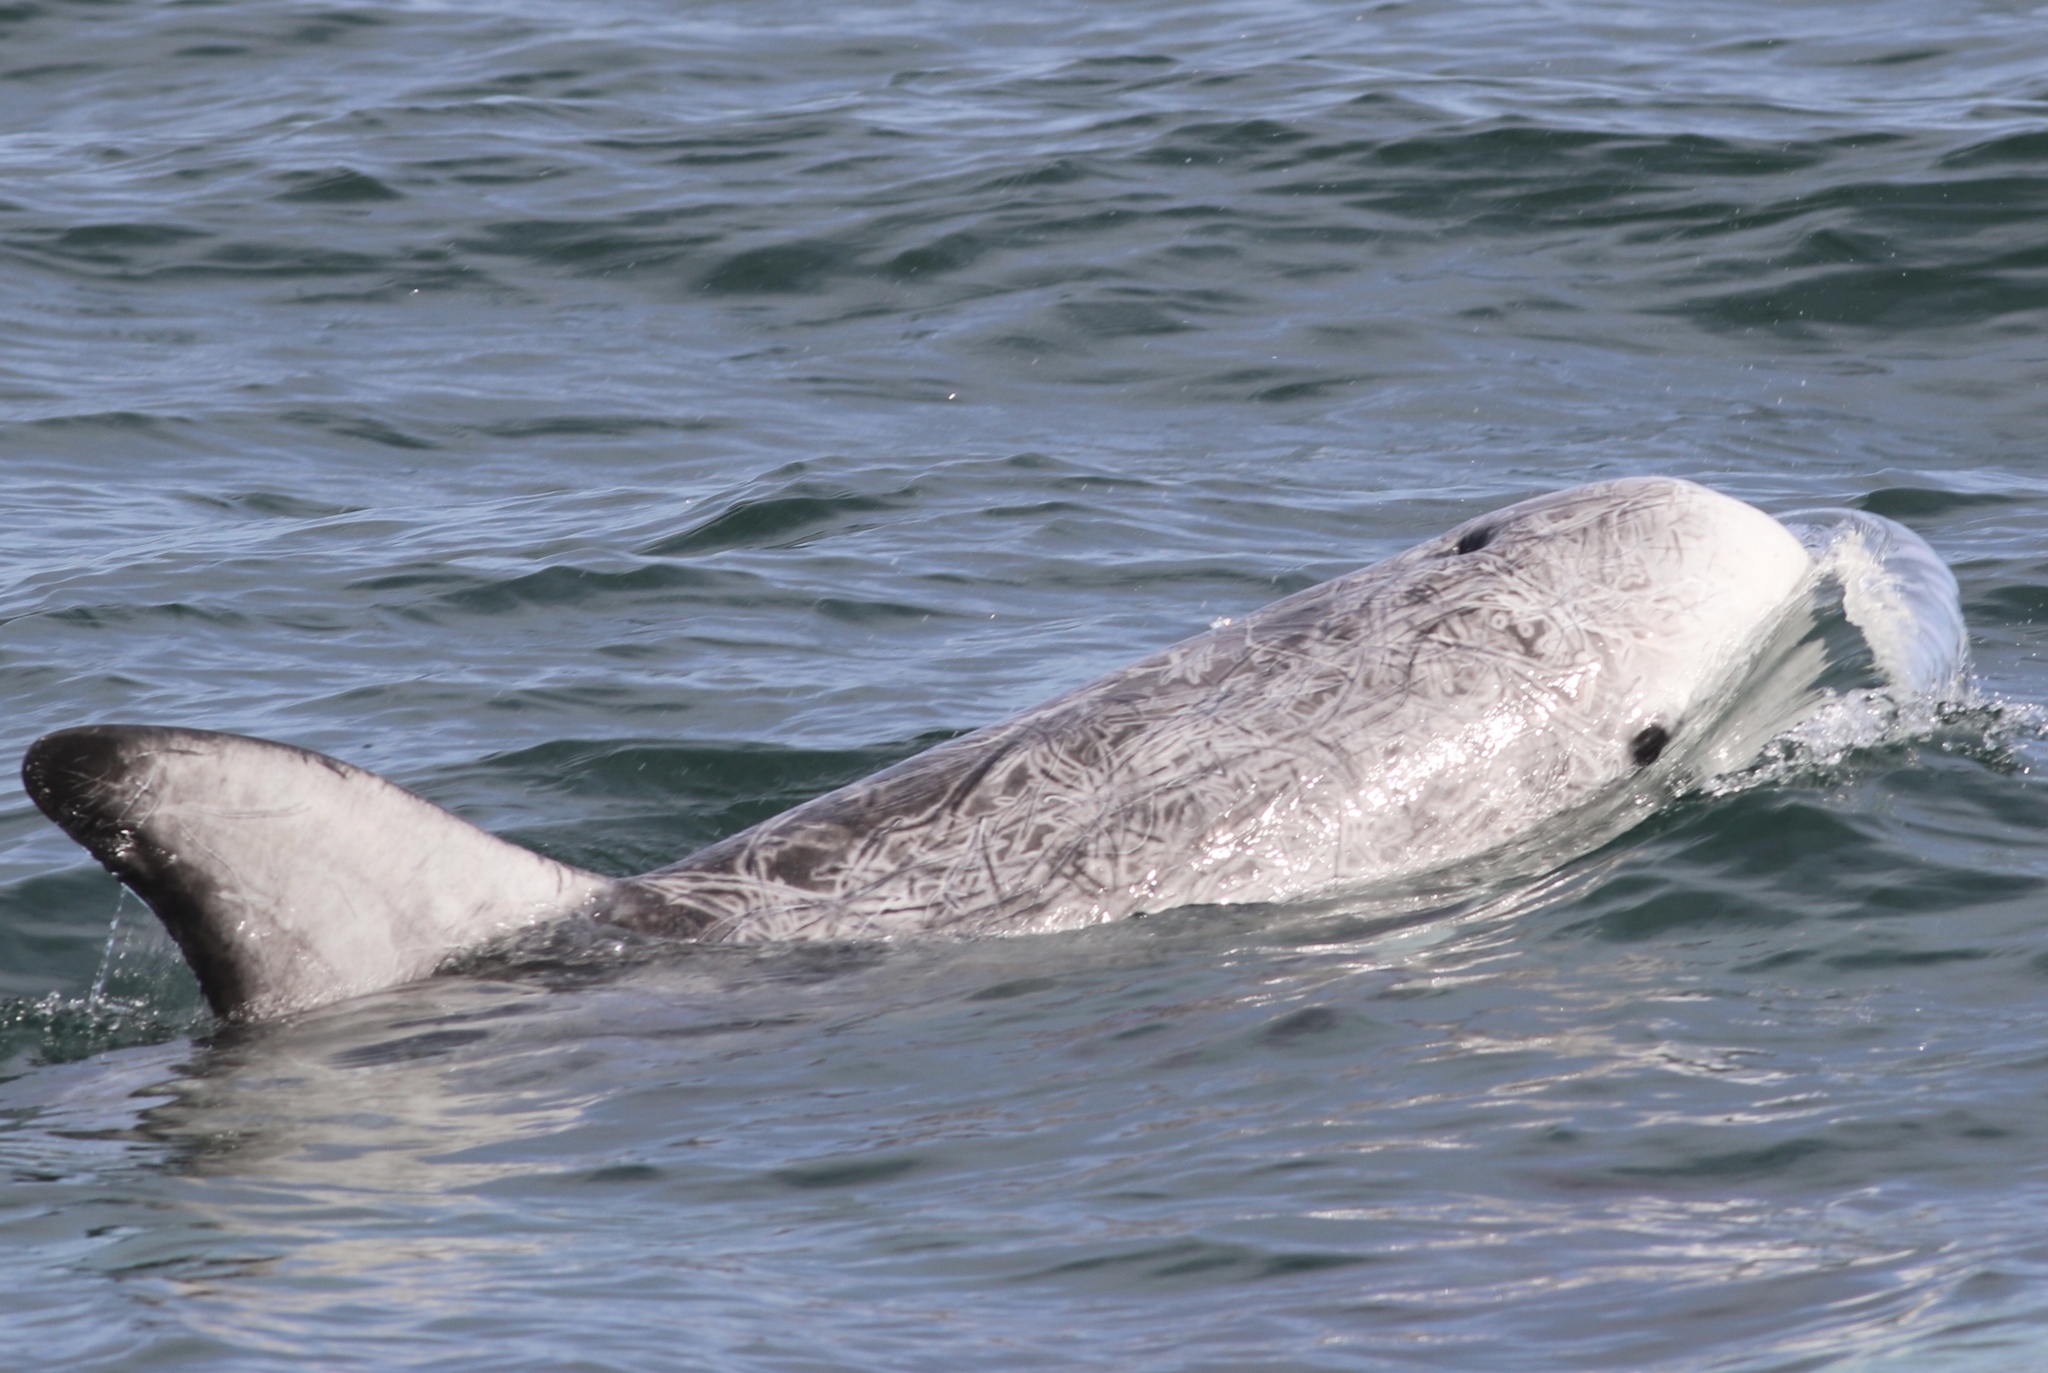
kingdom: Animalia
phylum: Chordata
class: Mammalia
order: Cetacea
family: Delphinidae
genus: Grampus
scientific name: Grampus griseus
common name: Risso's dolphin
